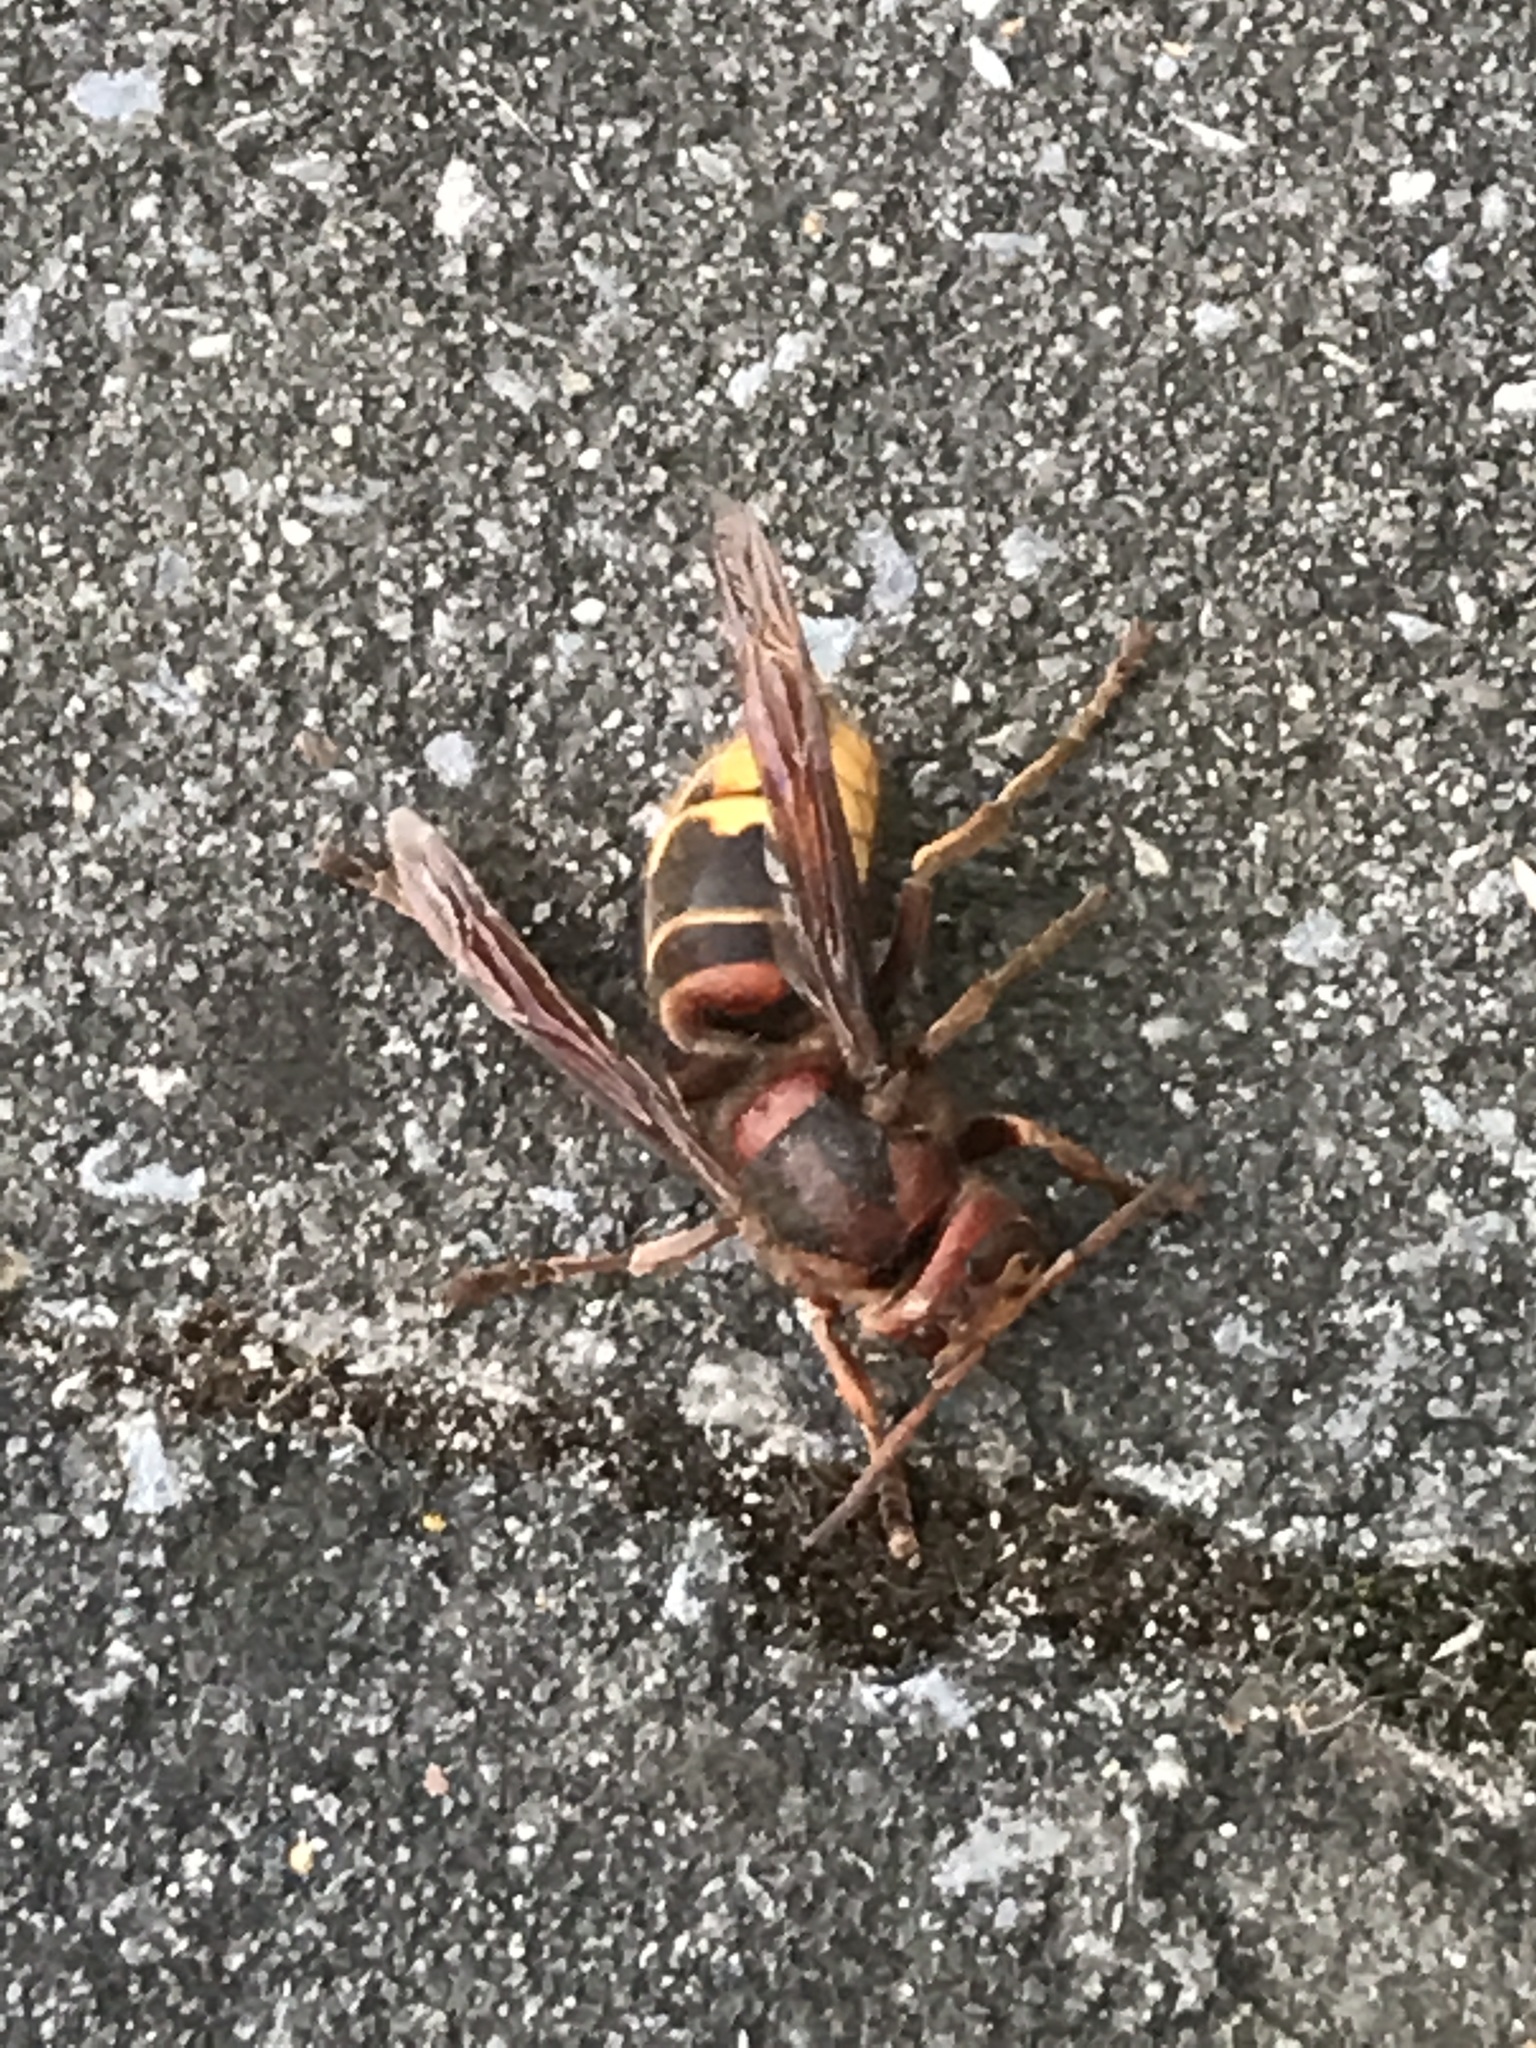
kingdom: Animalia
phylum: Arthropoda
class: Insecta
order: Hymenoptera
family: Vespidae
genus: Vespa
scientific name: Vespa crabro
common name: Hornet
